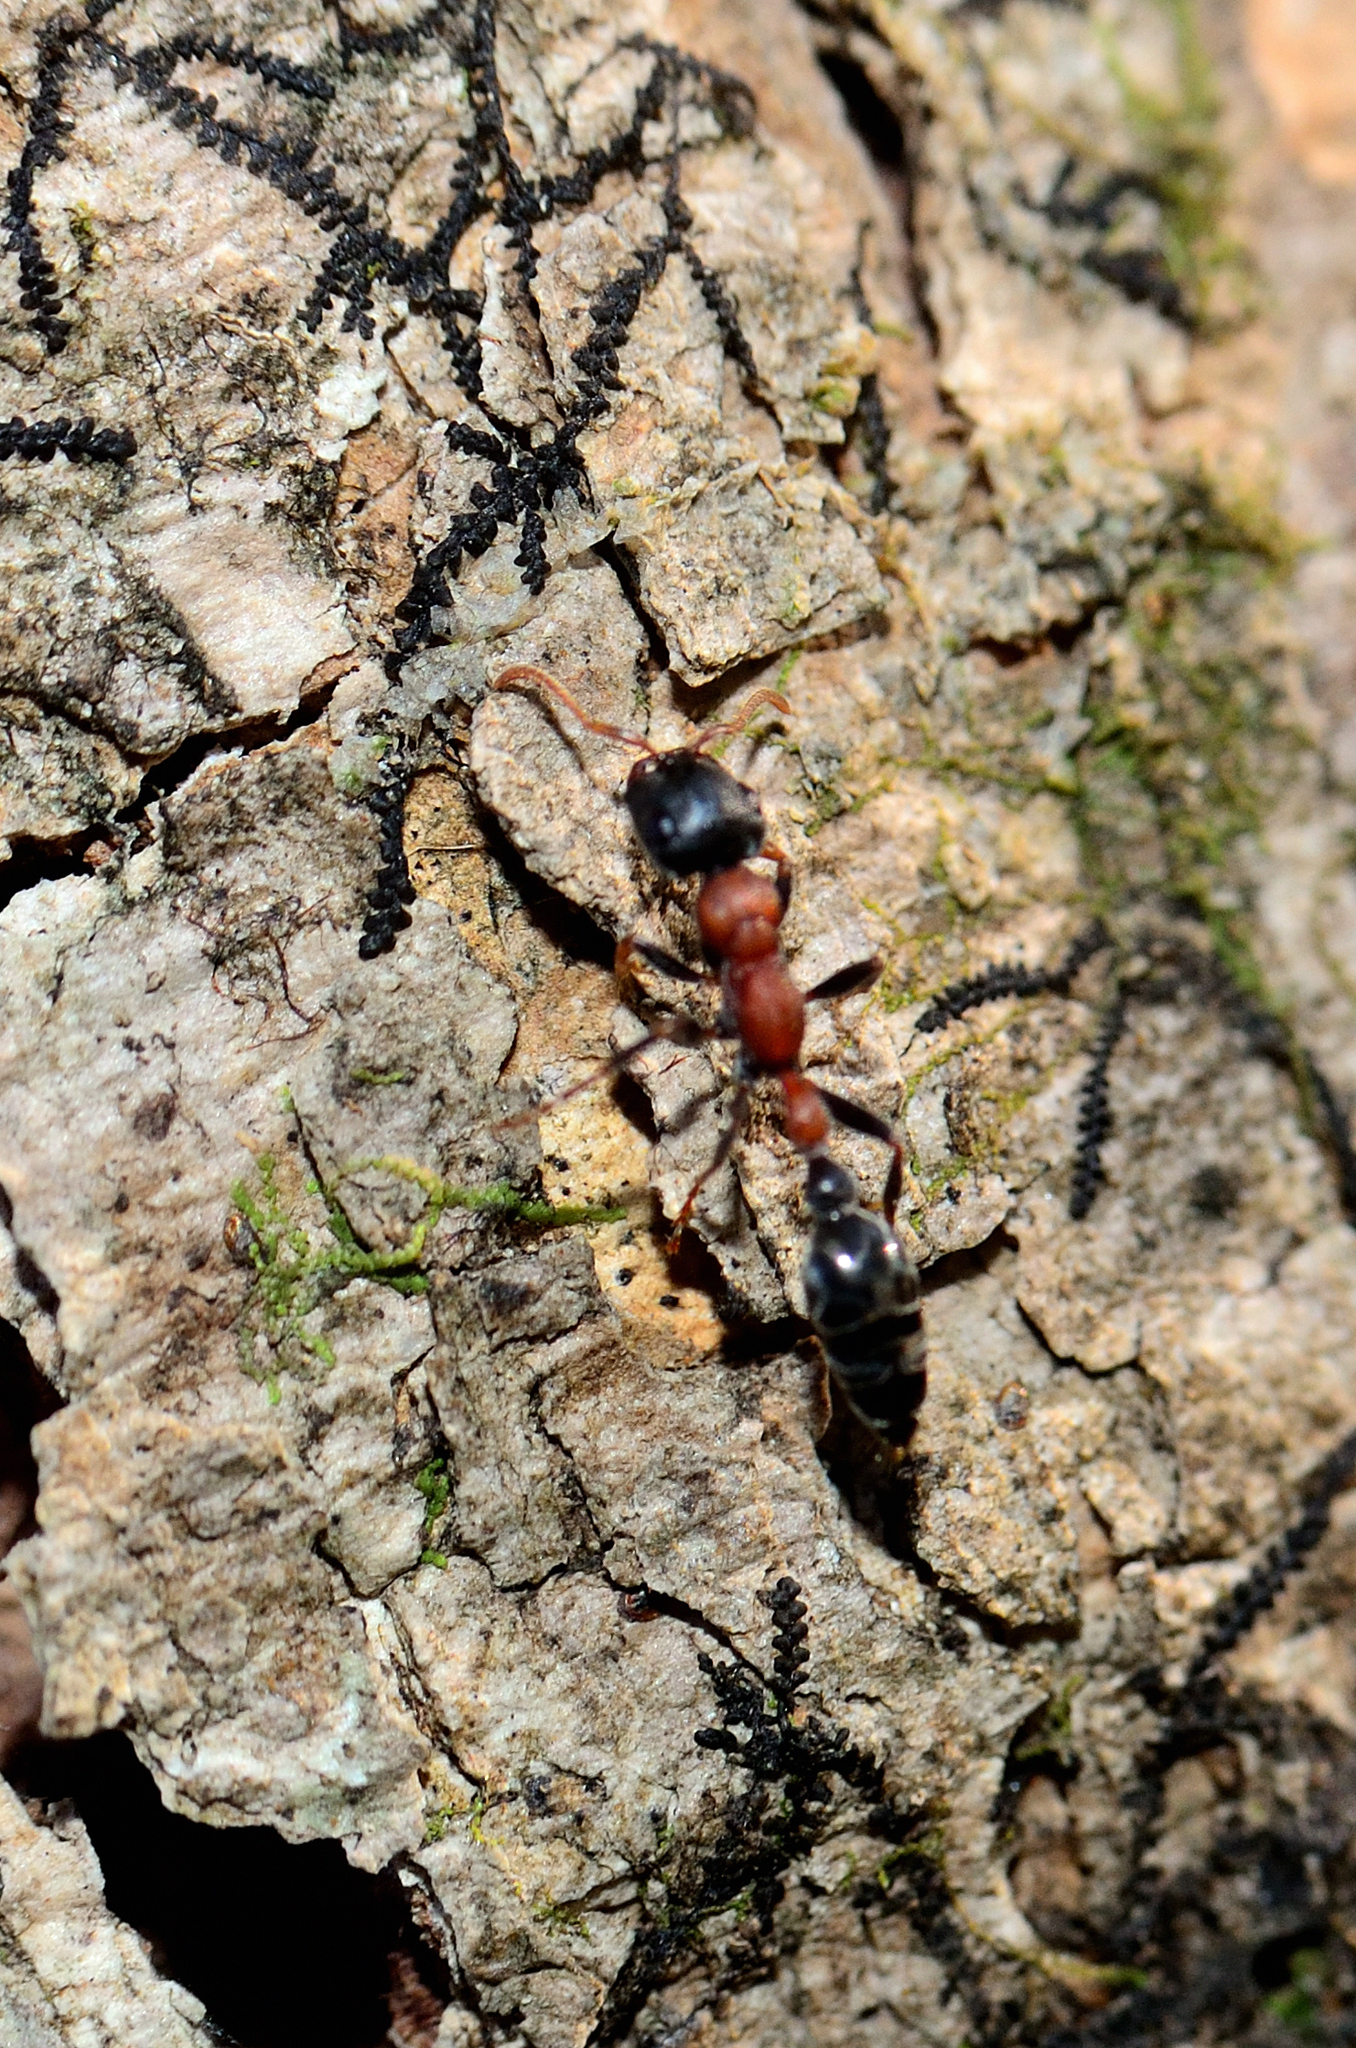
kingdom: Animalia
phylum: Arthropoda
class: Insecta
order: Hymenoptera
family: Formicidae
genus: Tetraponera
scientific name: Tetraponera rufonigra
